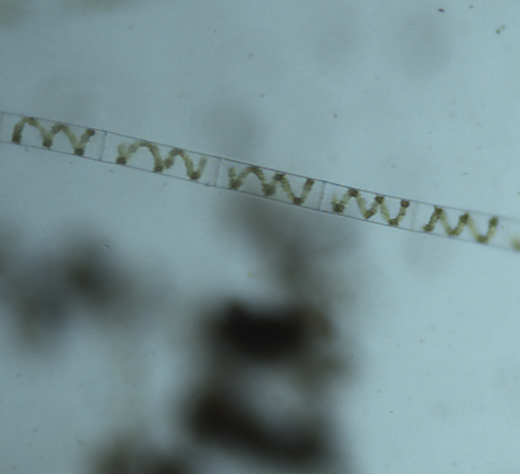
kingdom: Plantae
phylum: Charophyta
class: Zygnematophyceae
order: Zygnematales
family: Zygnemataceae
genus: Spirogyra
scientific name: Spirogyra
